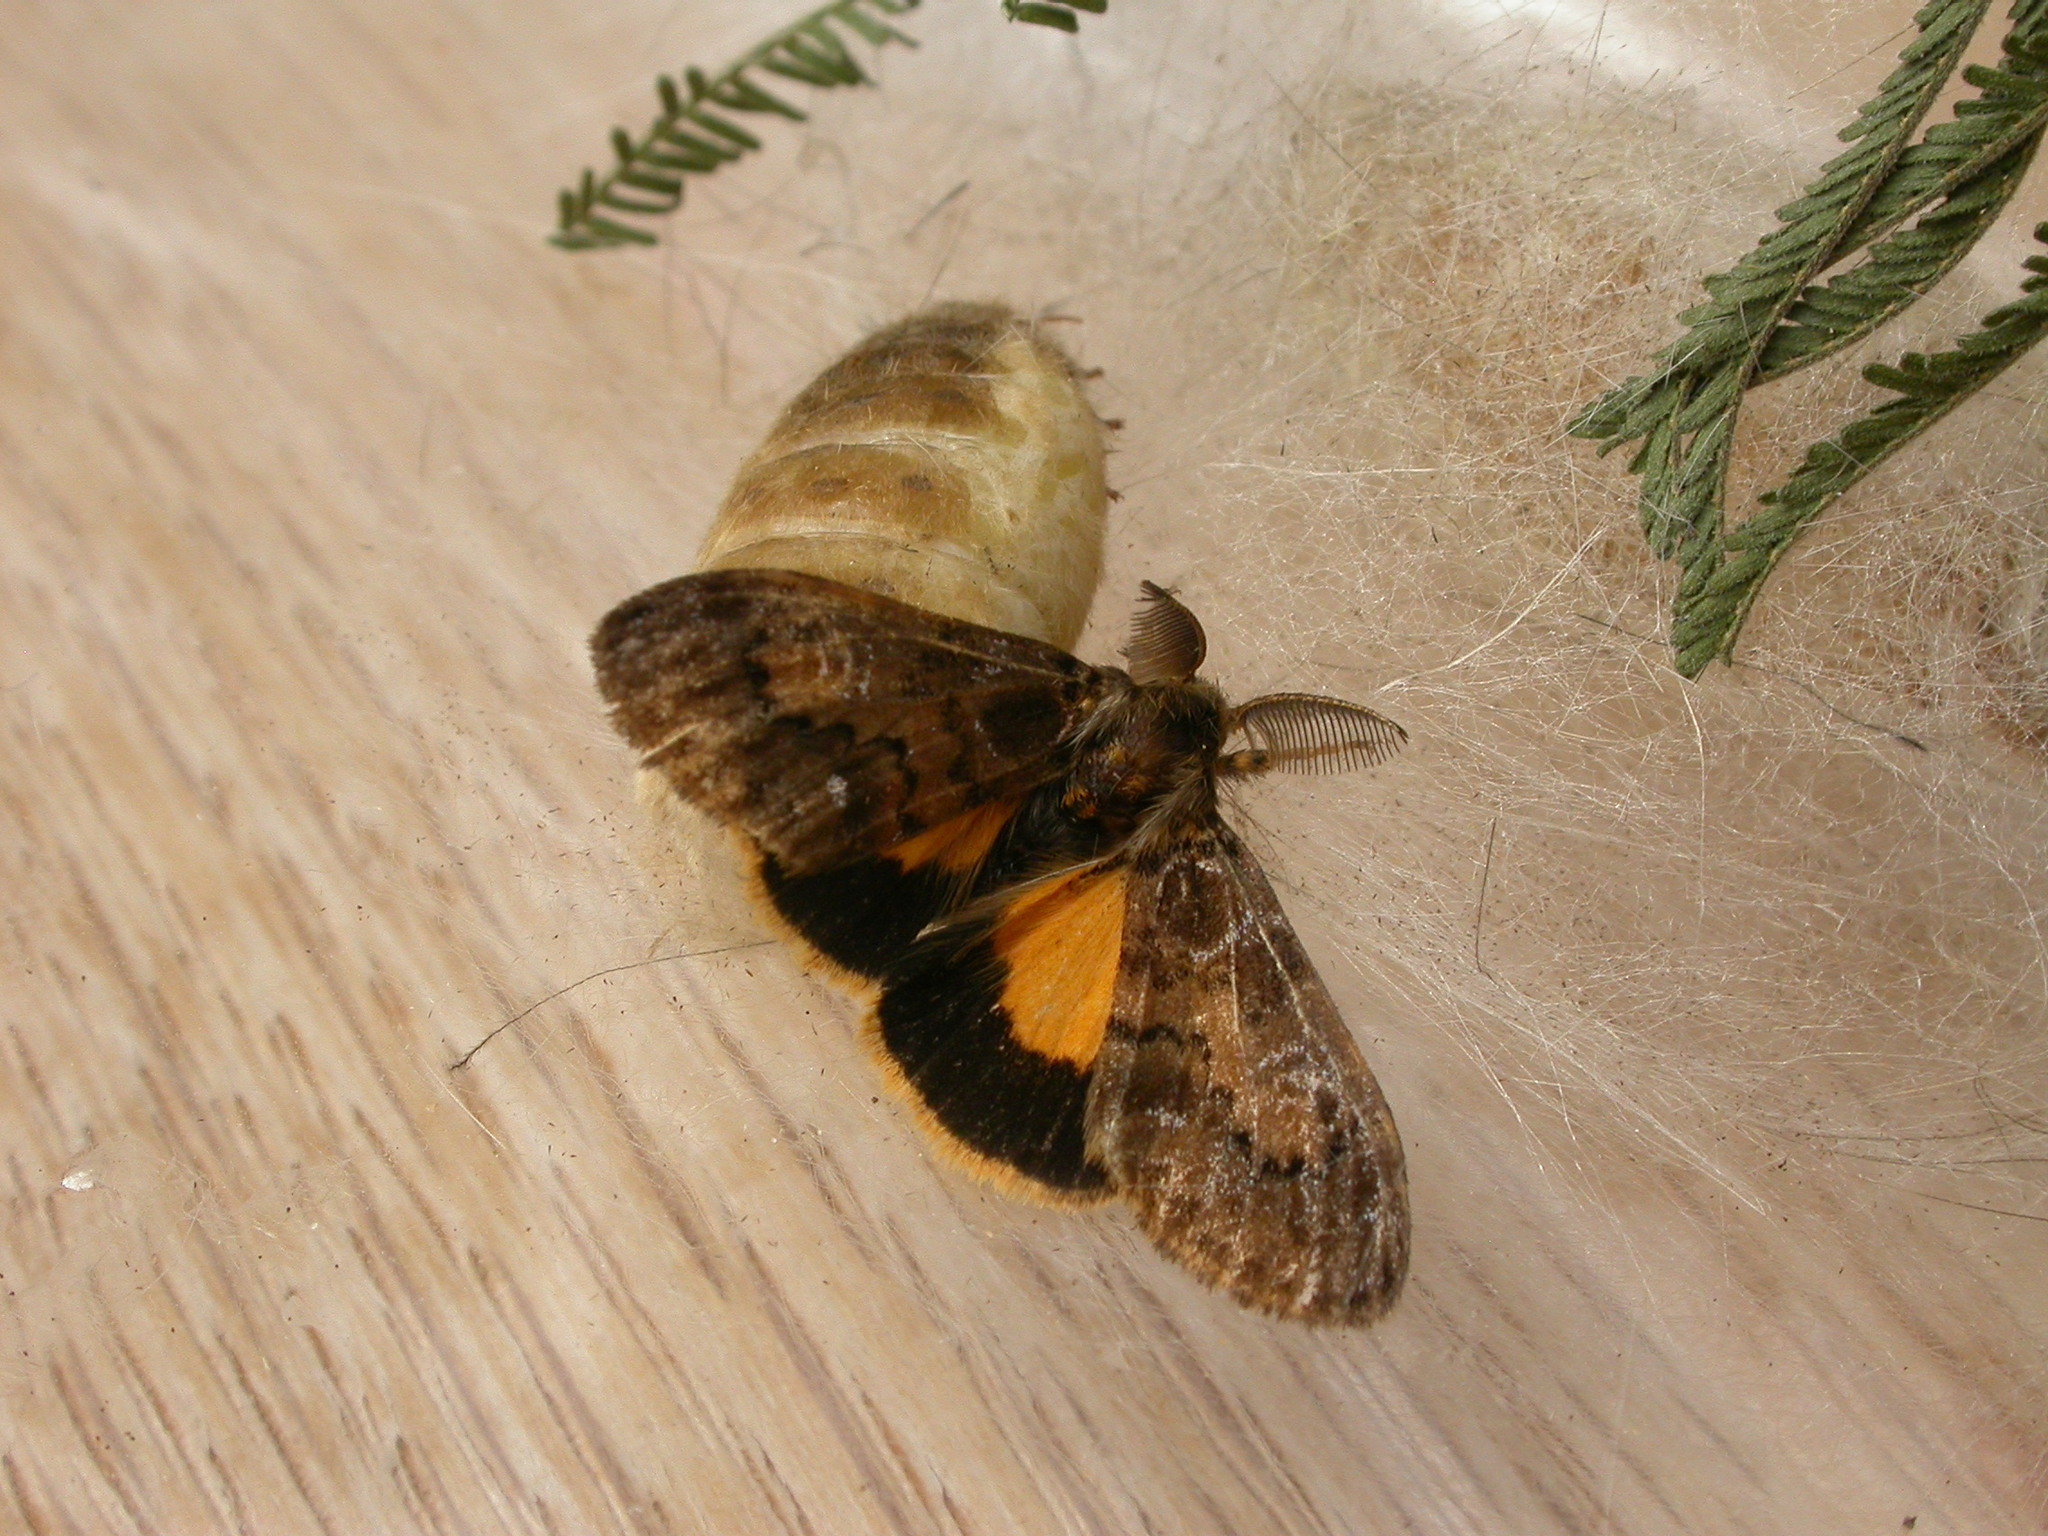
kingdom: Animalia
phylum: Arthropoda
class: Insecta
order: Lepidoptera
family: Erebidae
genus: Orgyia
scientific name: Orgyia
